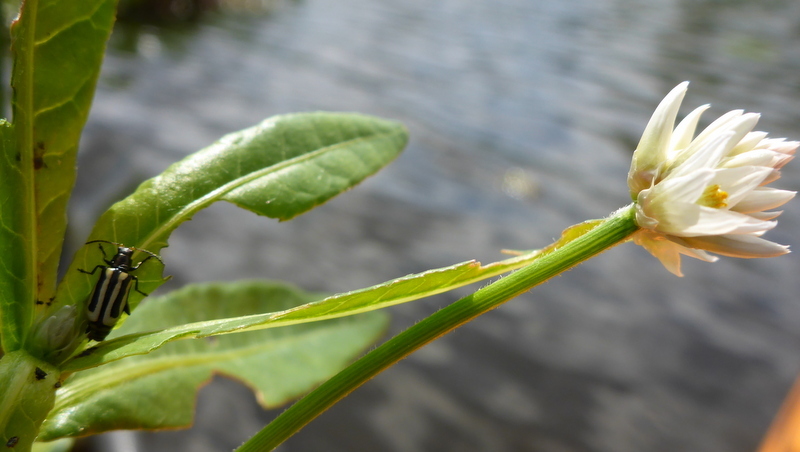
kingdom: Animalia
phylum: Arthropoda
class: Insecta
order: Coleoptera
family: Chrysomelidae
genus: Agasicles
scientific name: Agasicles hygrophila
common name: Alligatorweed flea beetle
